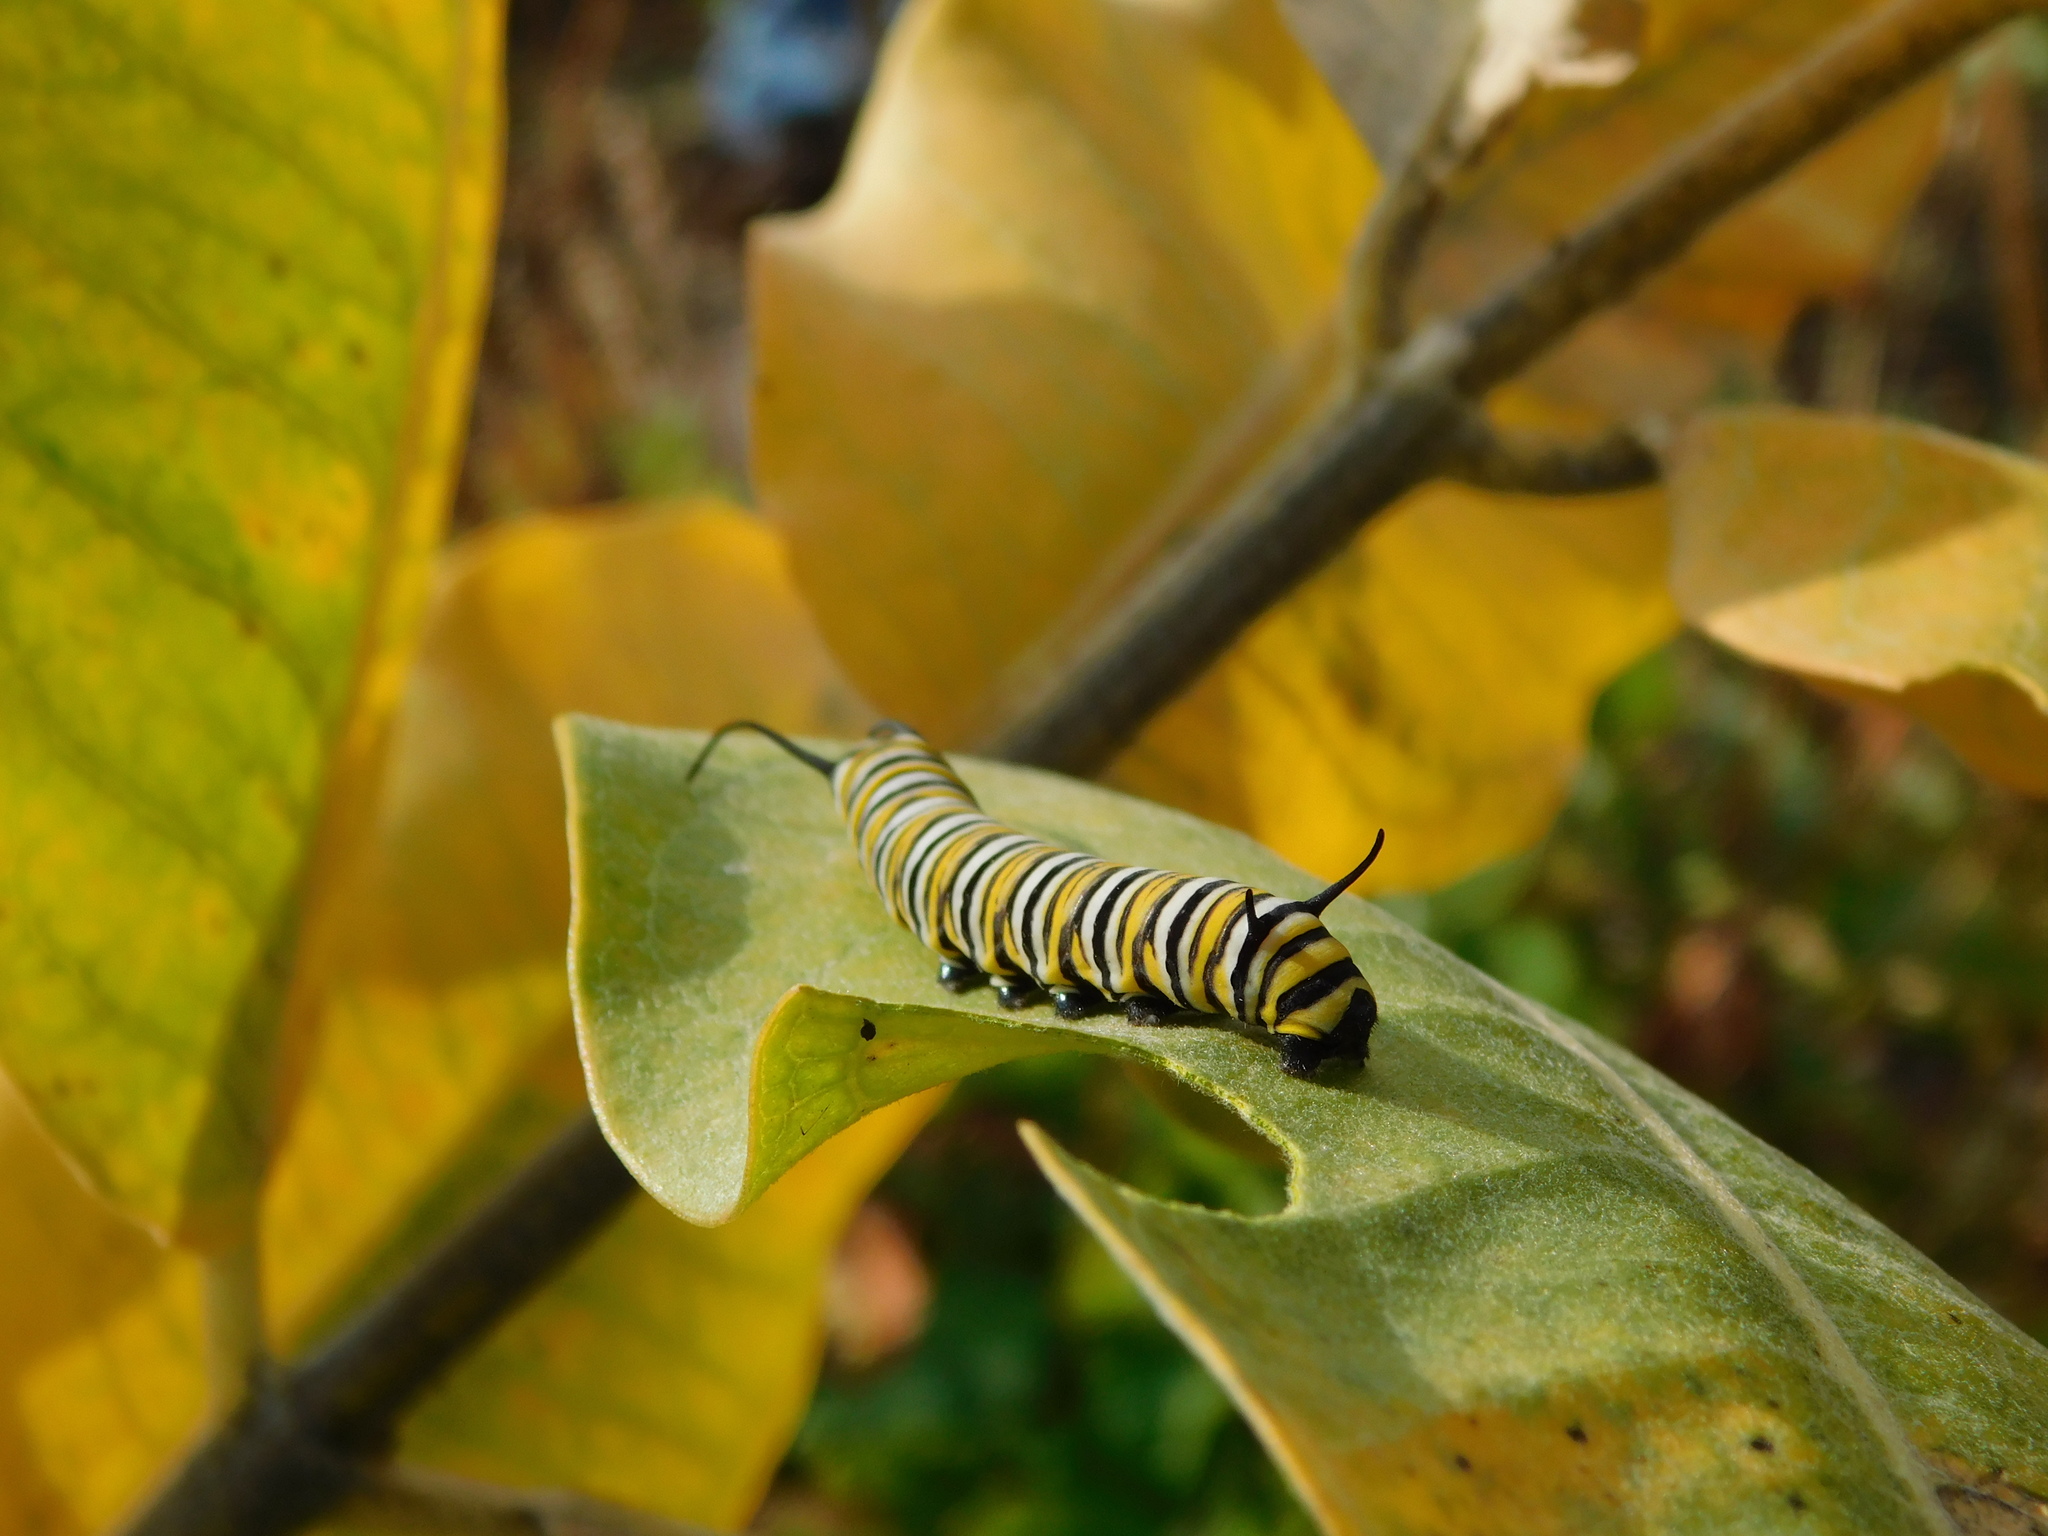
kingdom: Animalia
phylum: Arthropoda
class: Insecta
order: Lepidoptera
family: Nymphalidae
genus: Danaus
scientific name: Danaus plexippus
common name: Monarch
